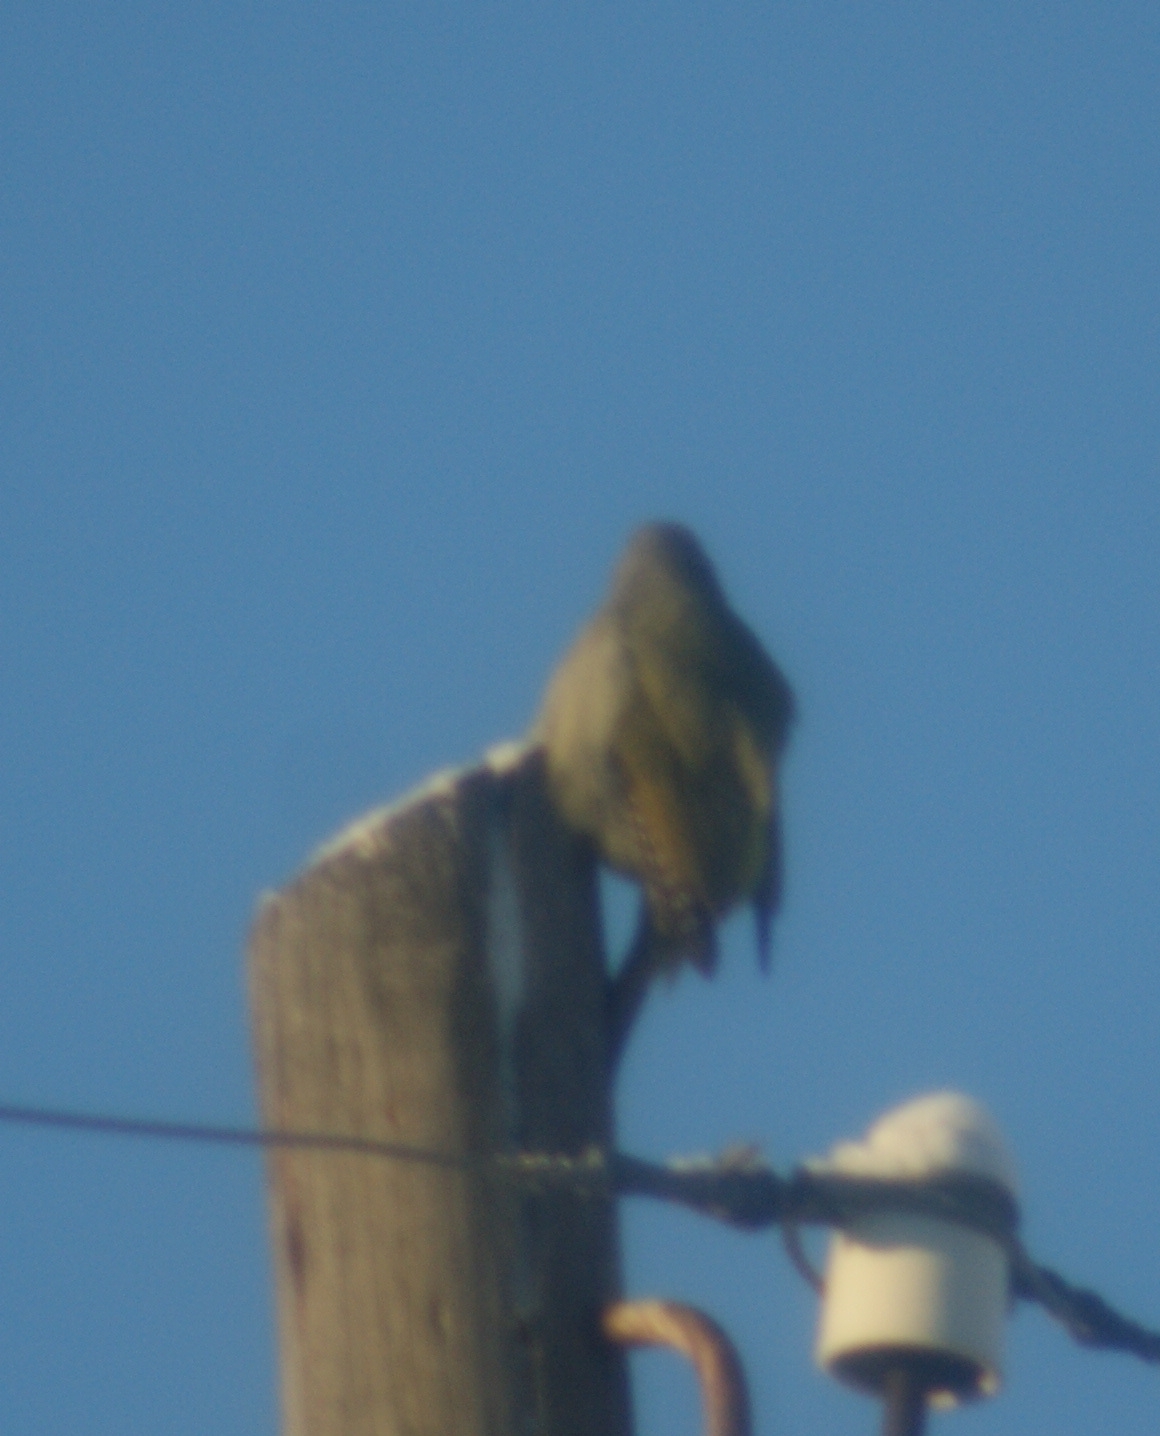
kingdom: Animalia
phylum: Chordata
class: Aves
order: Piciformes
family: Picidae
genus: Picus
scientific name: Picus canus
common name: Grey-headed woodpecker
